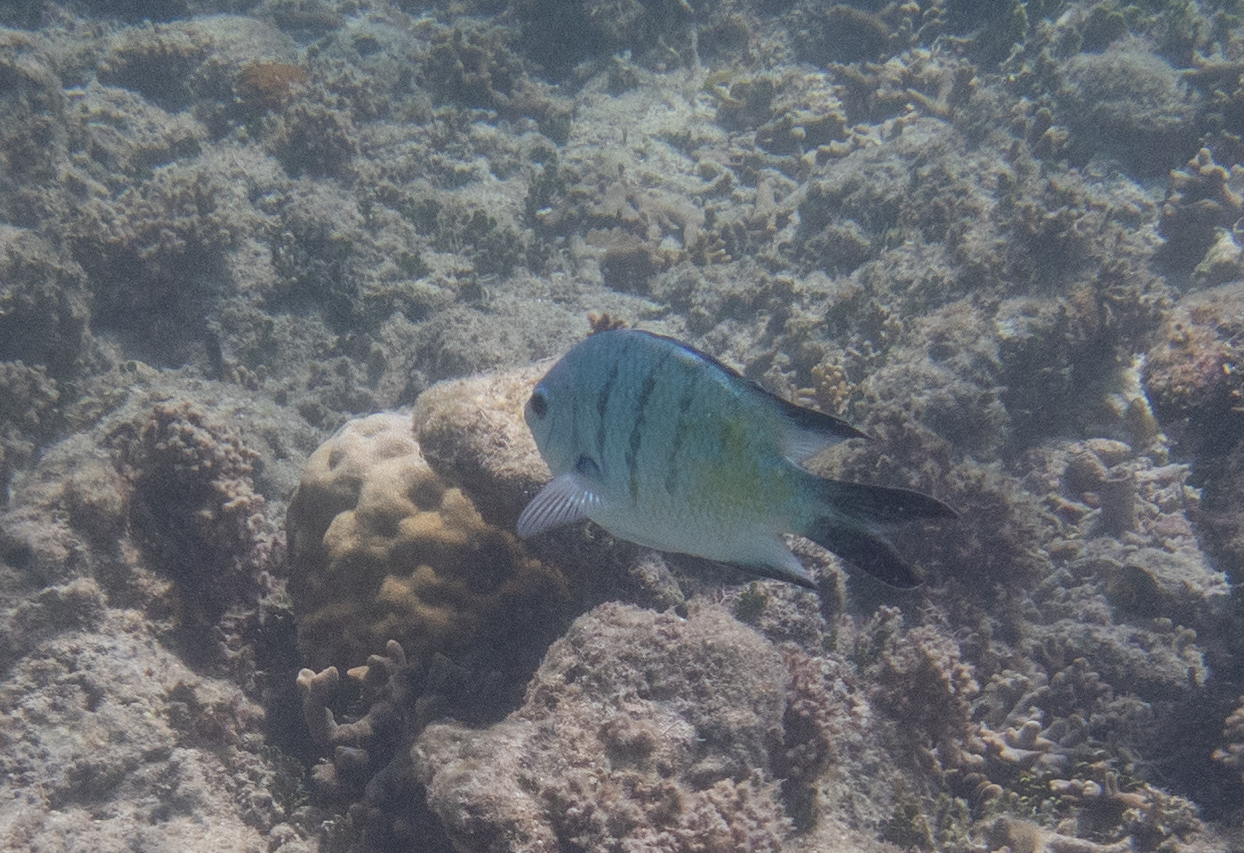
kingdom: Animalia
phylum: Chordata
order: Perciformes
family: Pomacentridae
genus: Abudefduf
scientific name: Abudefduf whitleyi
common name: Whitley's seargent
